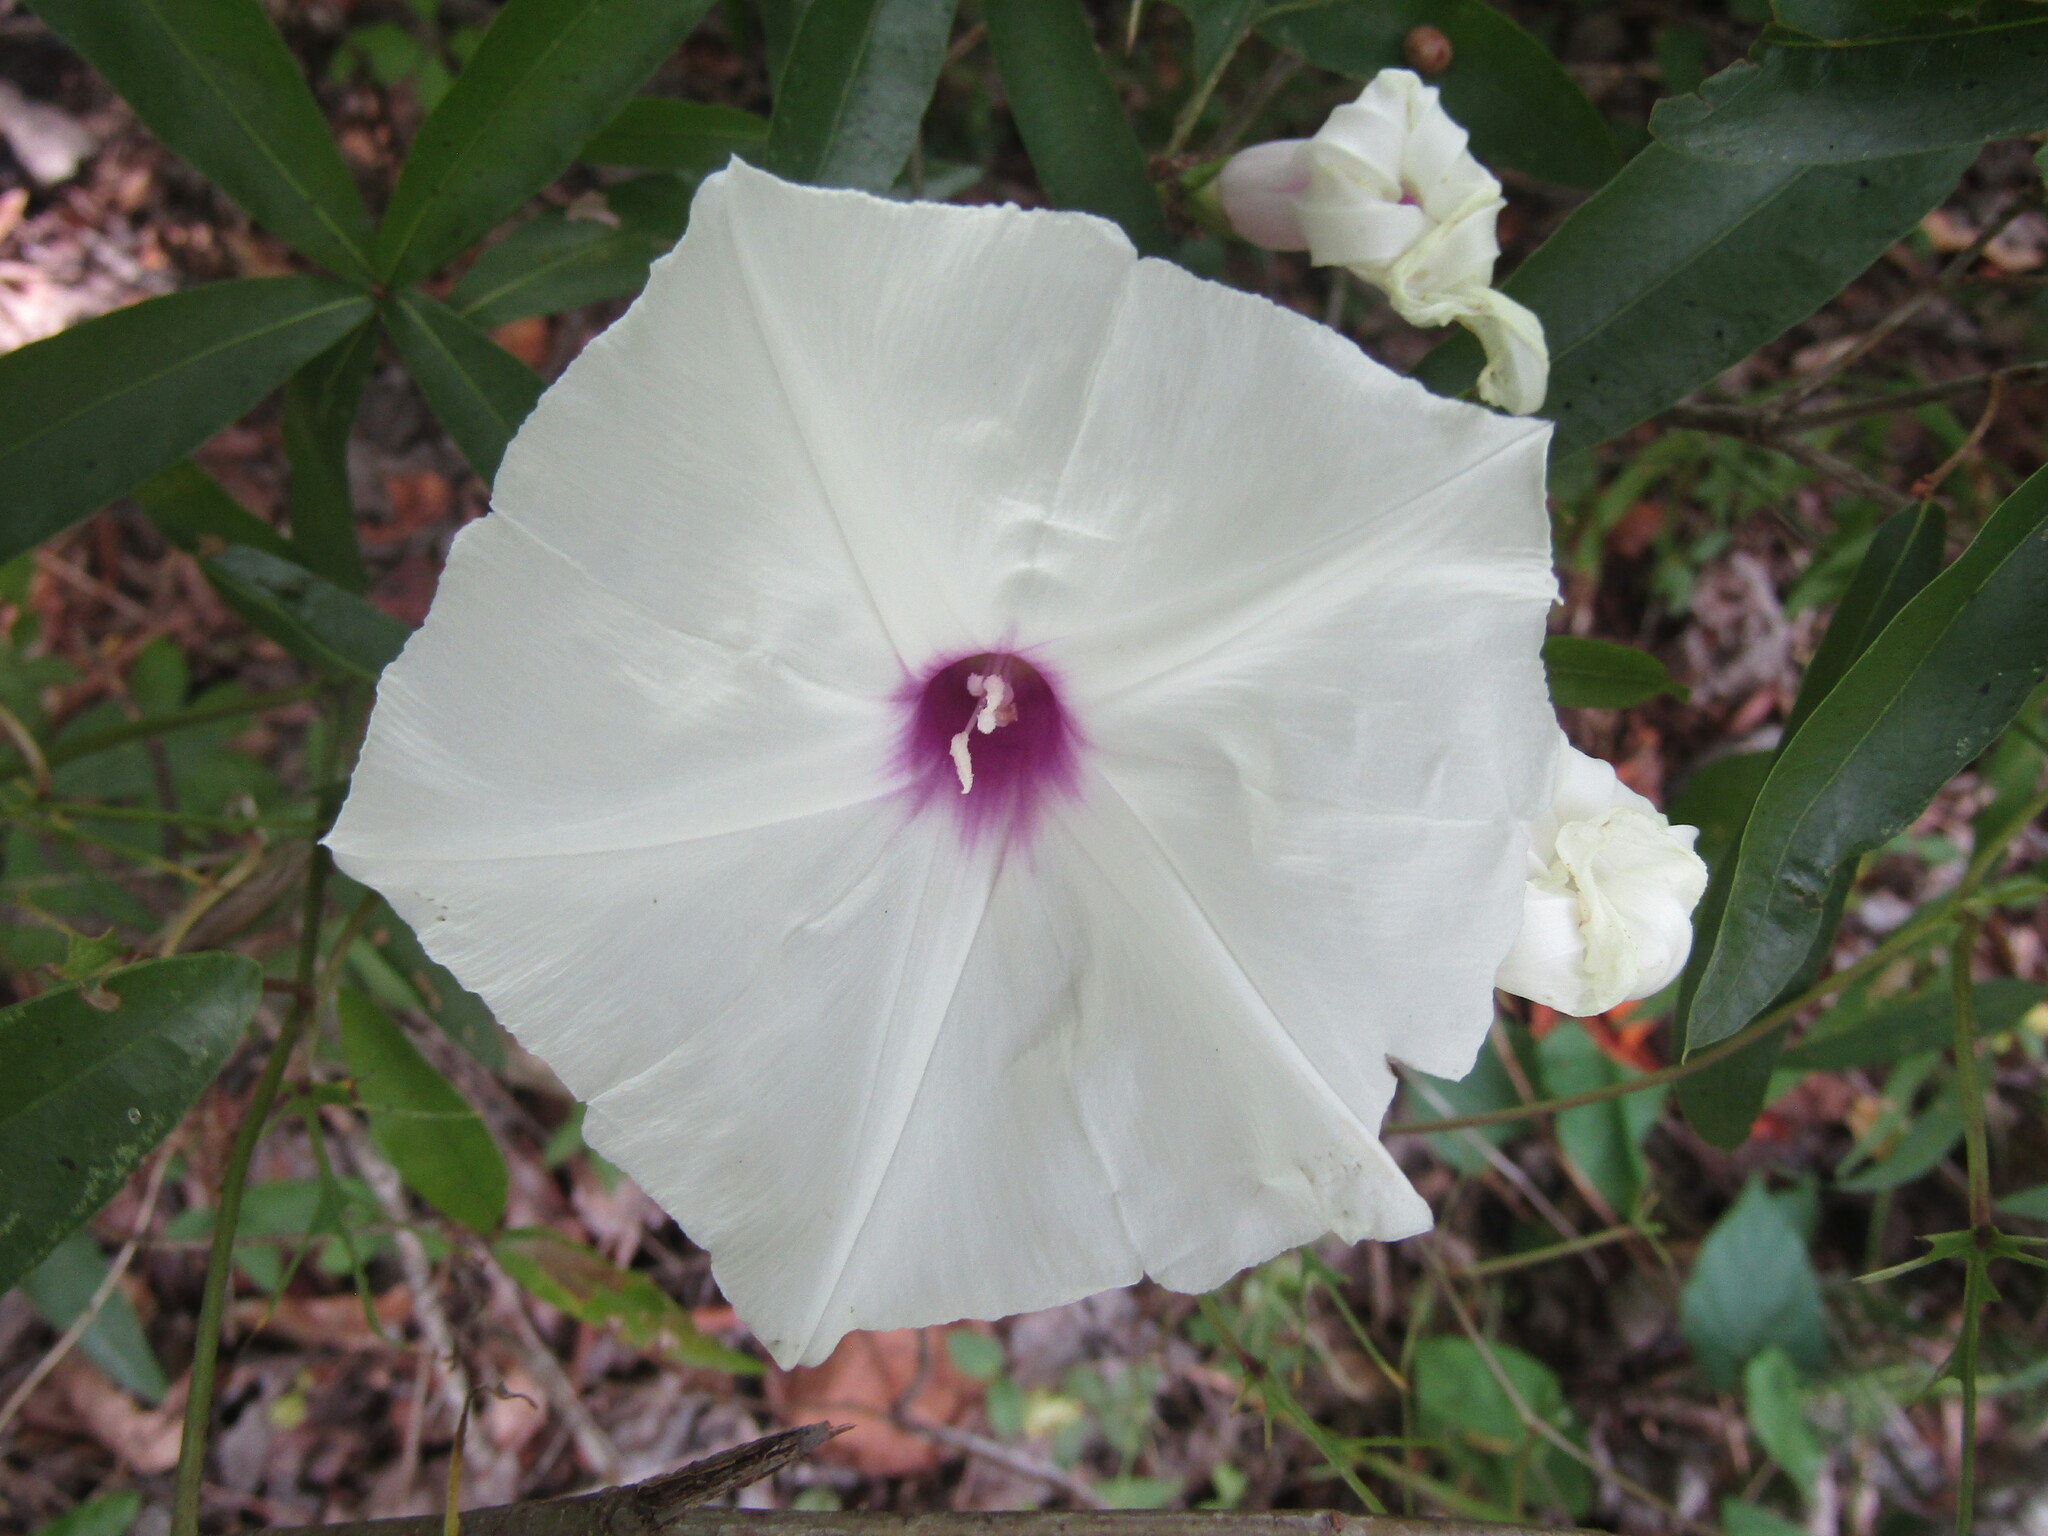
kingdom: Plantae
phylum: Tracheophyta
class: Magnoliopsida
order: Solanales
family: Convolvulaceae
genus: Ipomoea
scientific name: Ipomoea pandurata
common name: Man-of-the-earth
